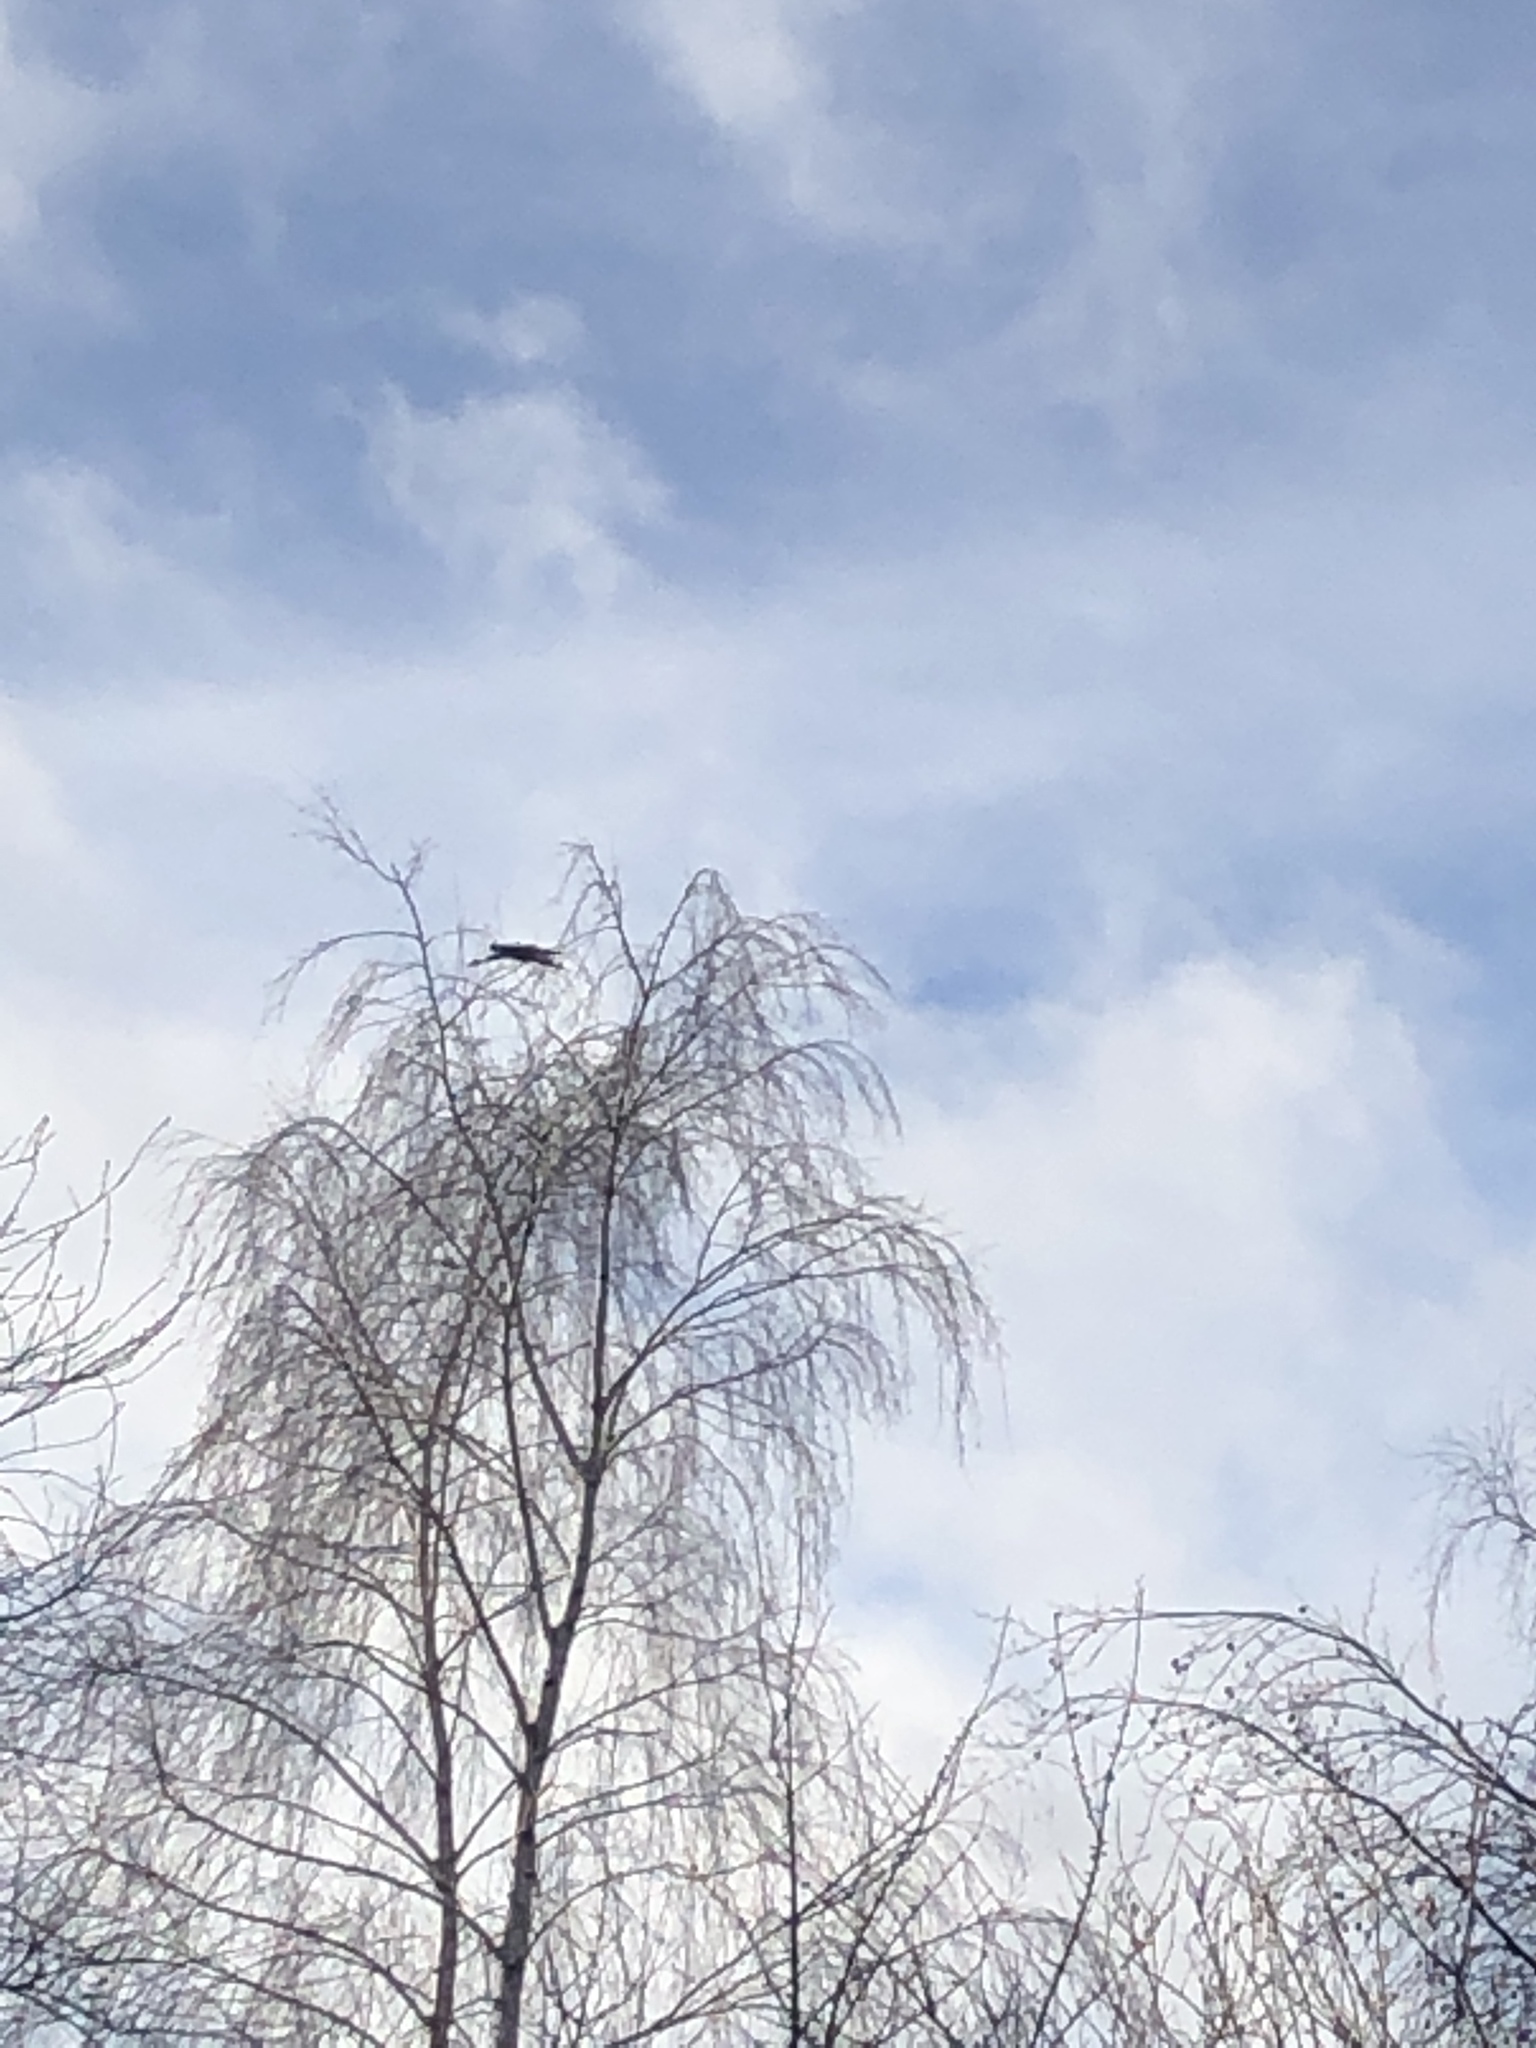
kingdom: Animalia
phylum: Chordata
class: Aves
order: Pelecaniformes
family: Ardeidae
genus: Ardea
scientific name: Ardea cinerea
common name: Grey heron
